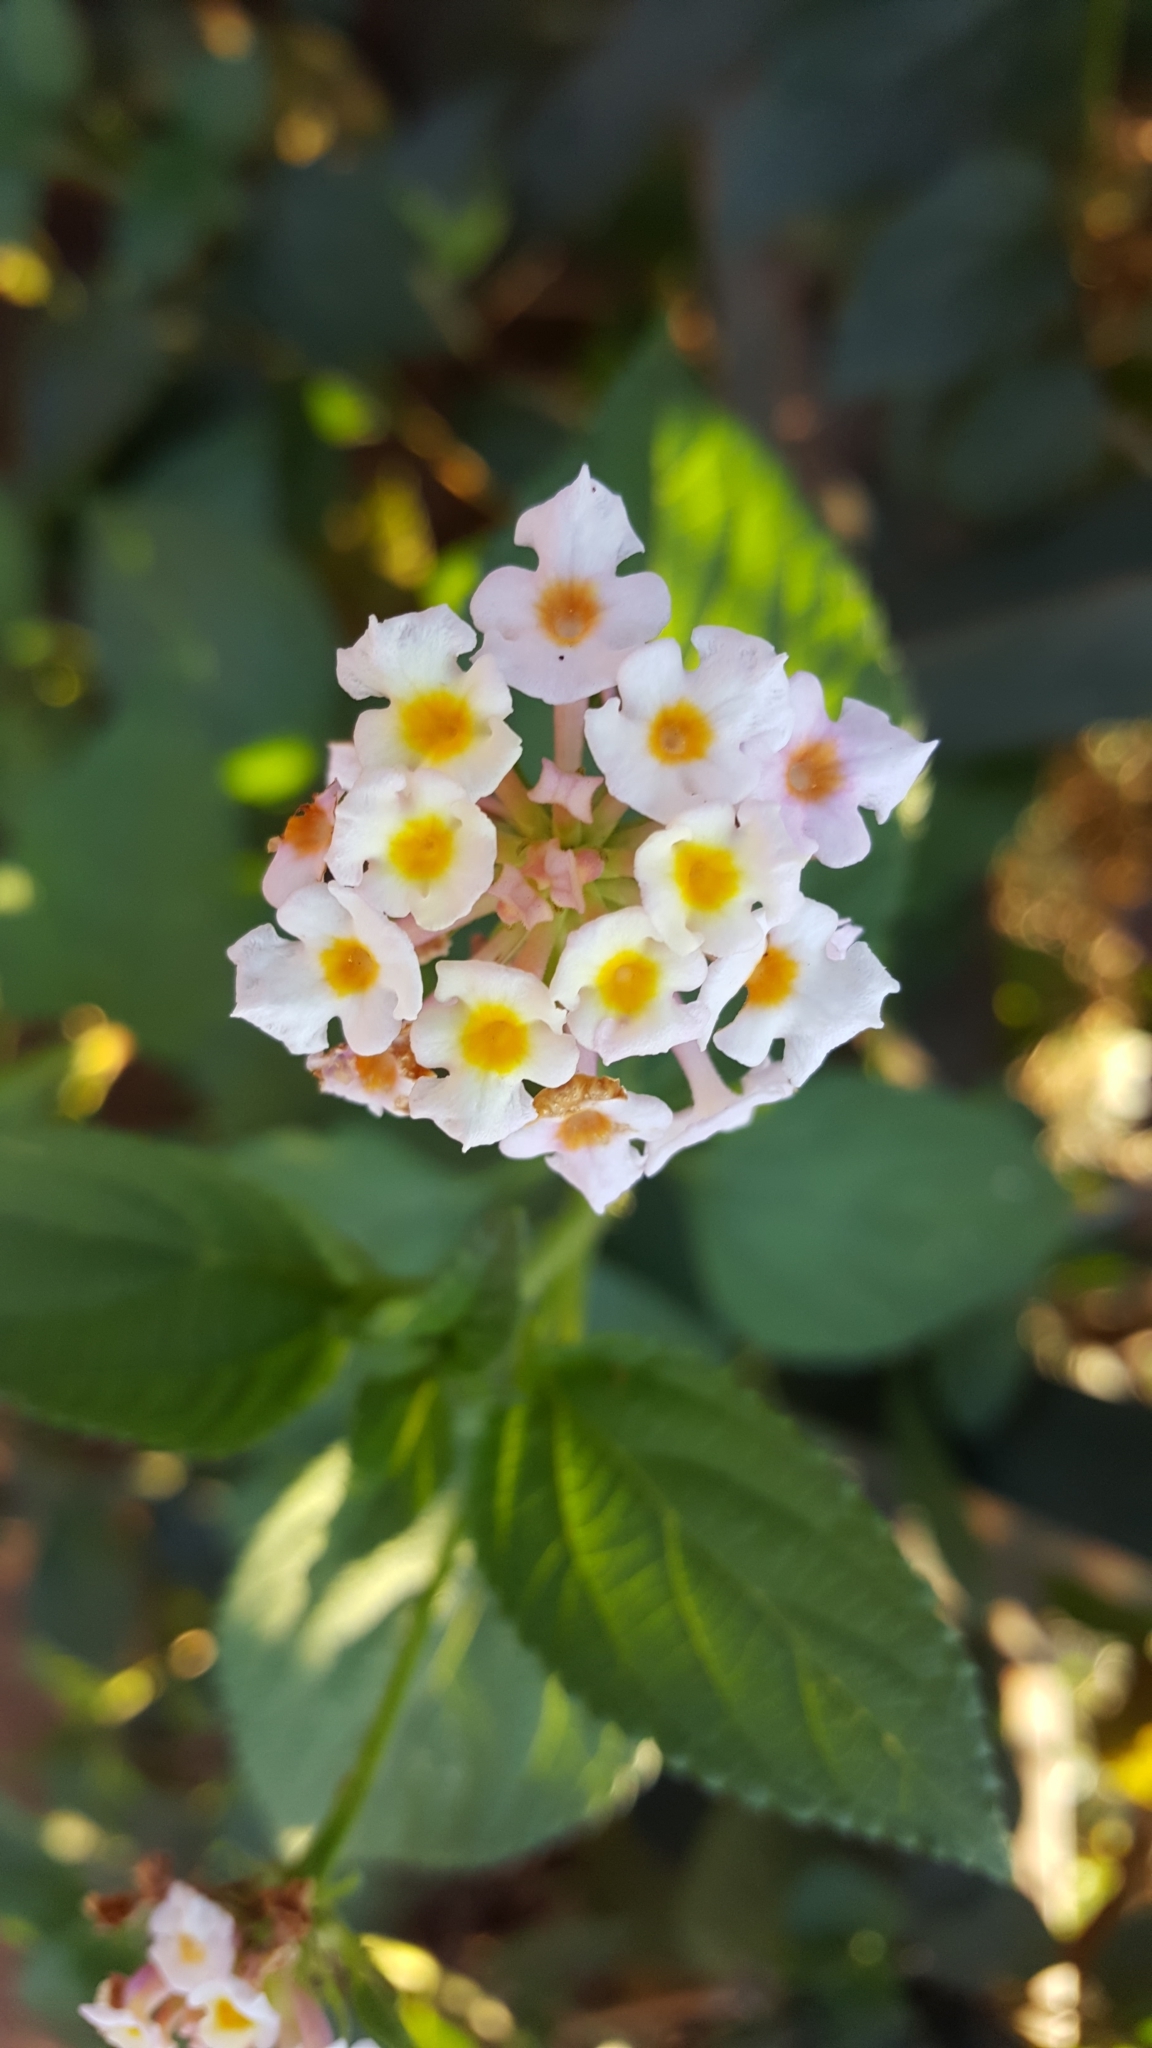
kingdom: Plantae
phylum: Tracheophyta
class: Magnoliopsida
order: Lamiales
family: Verbenaceae
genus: Lantana
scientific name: Lantana camara
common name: Lantana
